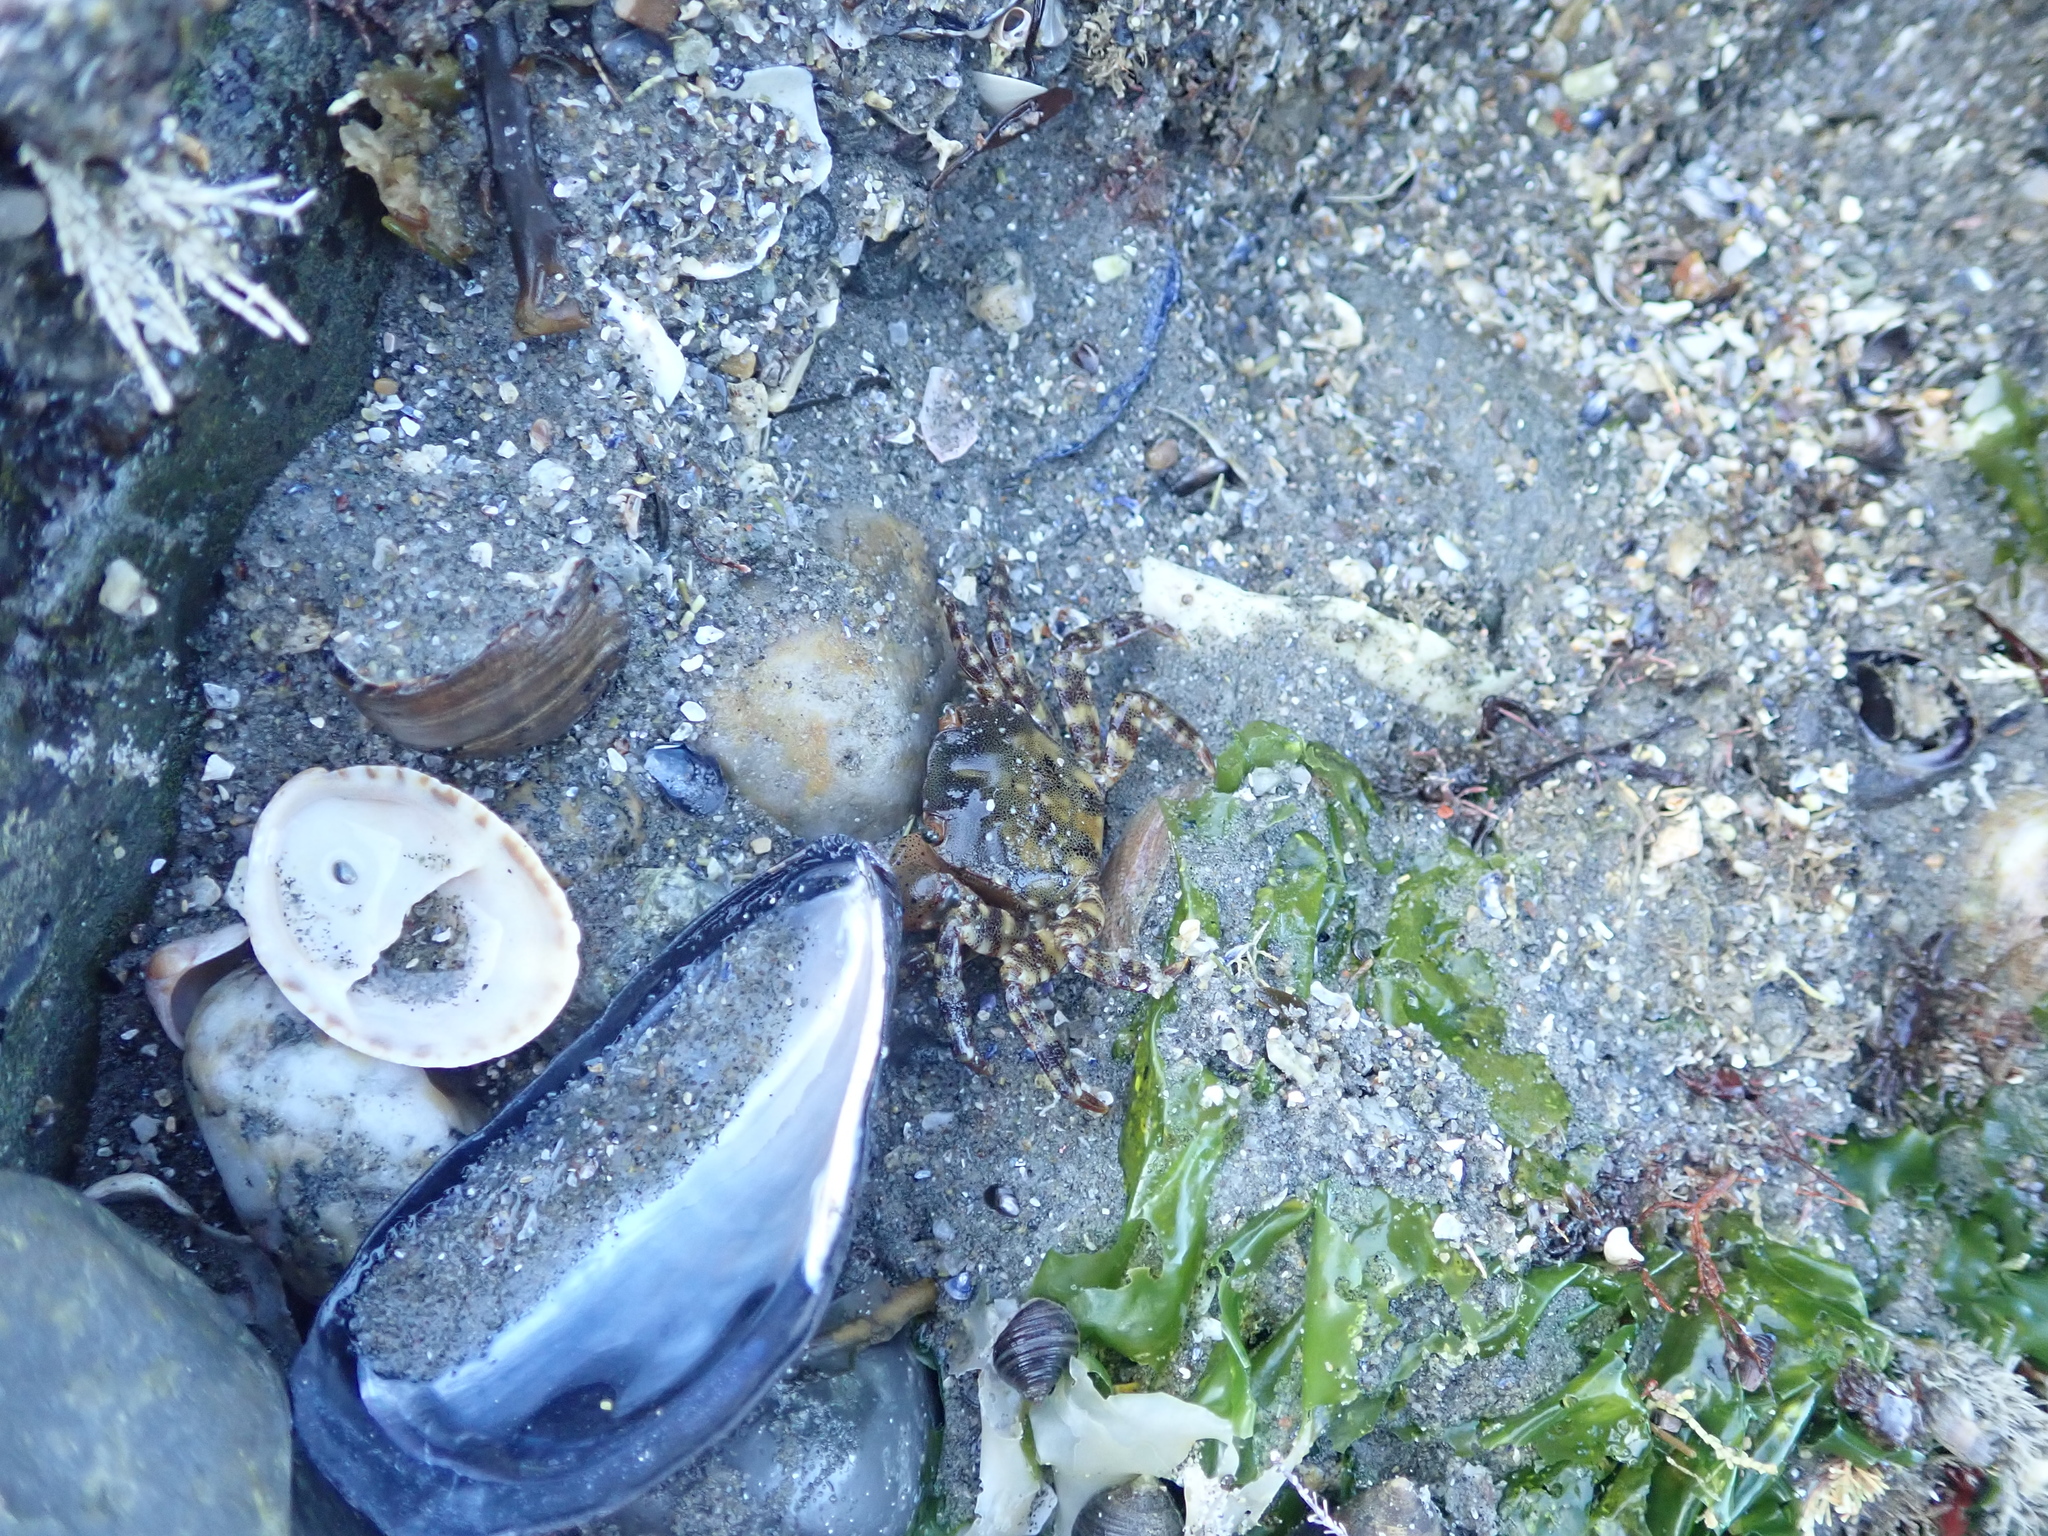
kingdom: Animalia
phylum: Mollusca
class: Bivalvia
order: Mytilida
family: Mytilidae
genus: Mytilus
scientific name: Mytilus edulis
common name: Blue mussel
